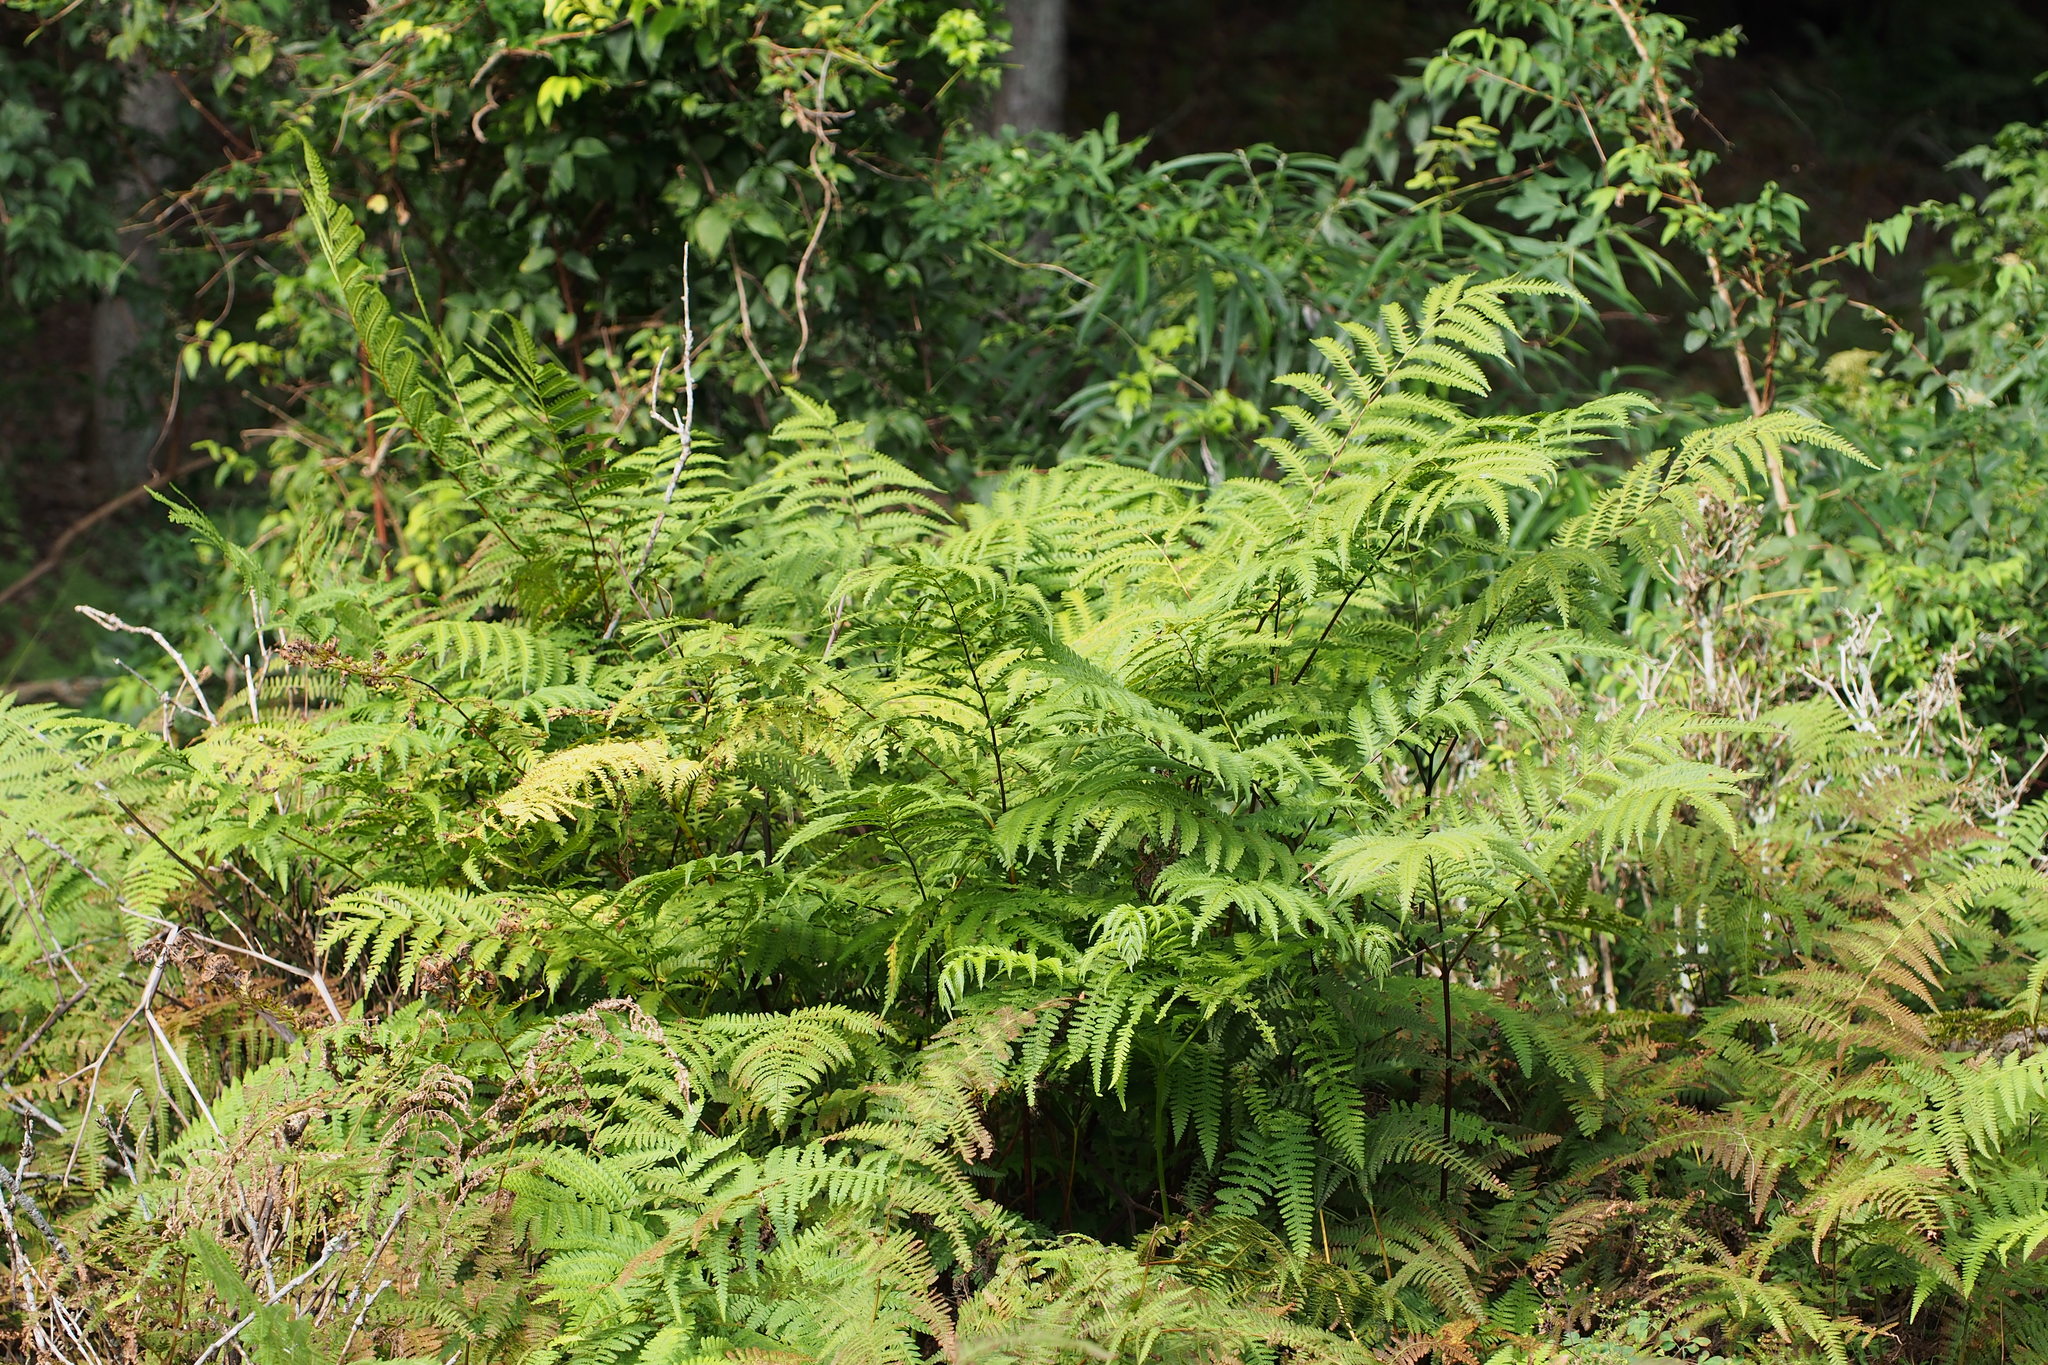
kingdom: Plantae
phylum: Tracheophyta
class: Polypodiopsida
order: Polypodiales
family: Pteridaceae
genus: Pteris
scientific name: Pteris wallichiana
